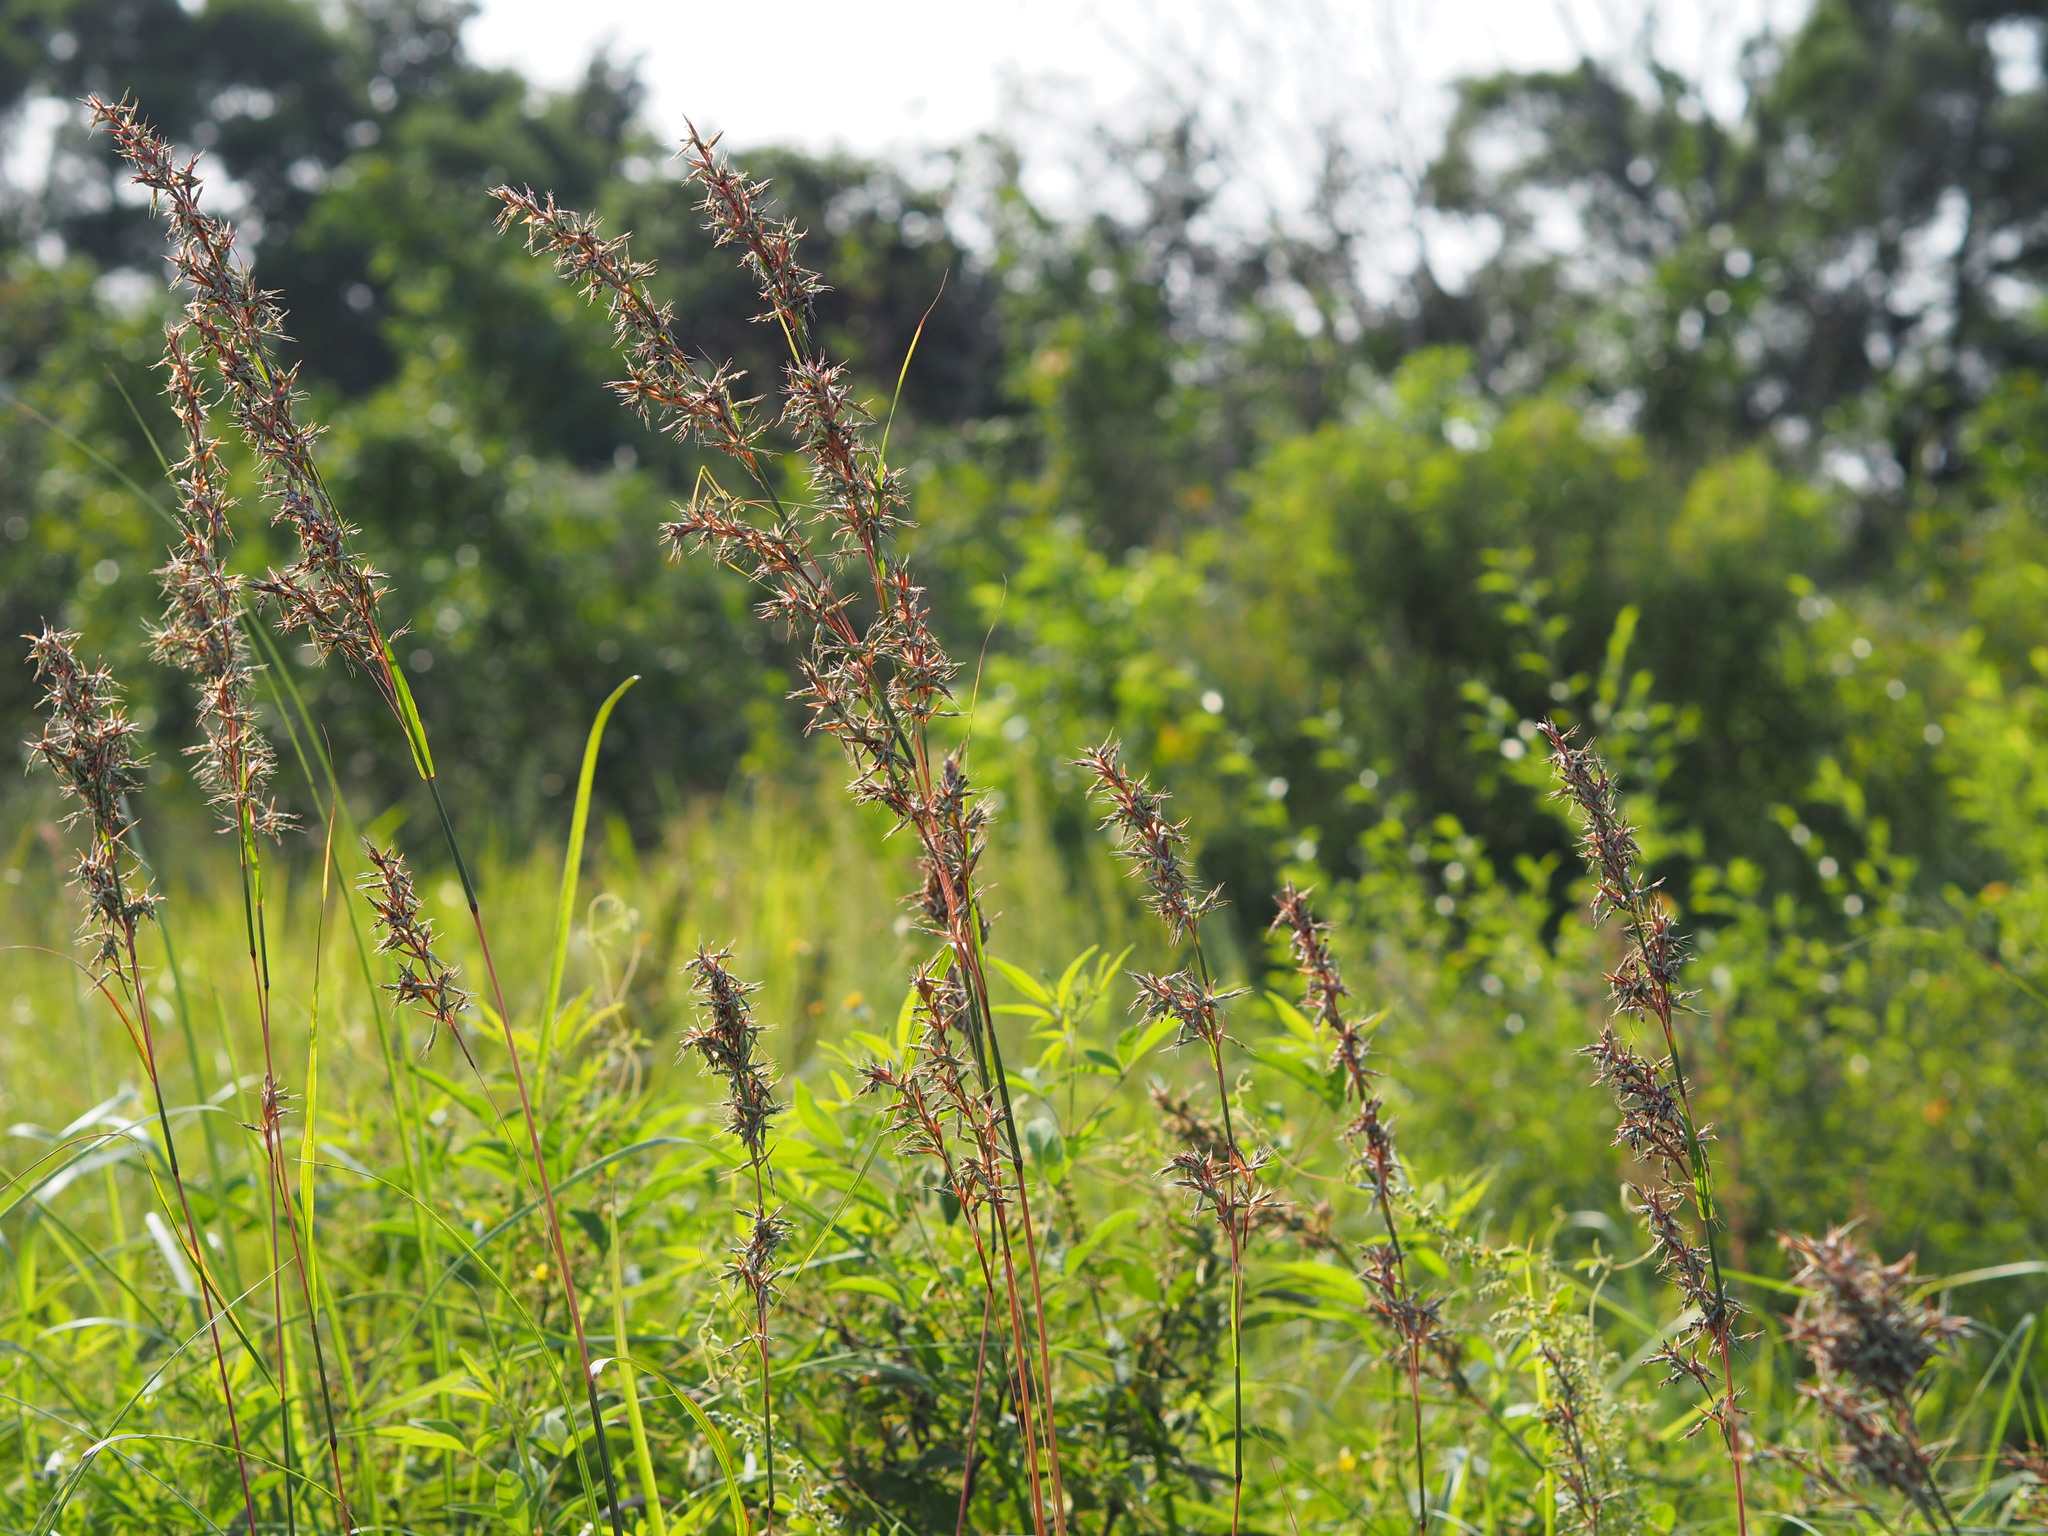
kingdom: Plantae
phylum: Tracheophyta
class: Liliopsida
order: Poales
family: Poaceae
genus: Cymbopogon
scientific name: Cymbopogon tortilis
